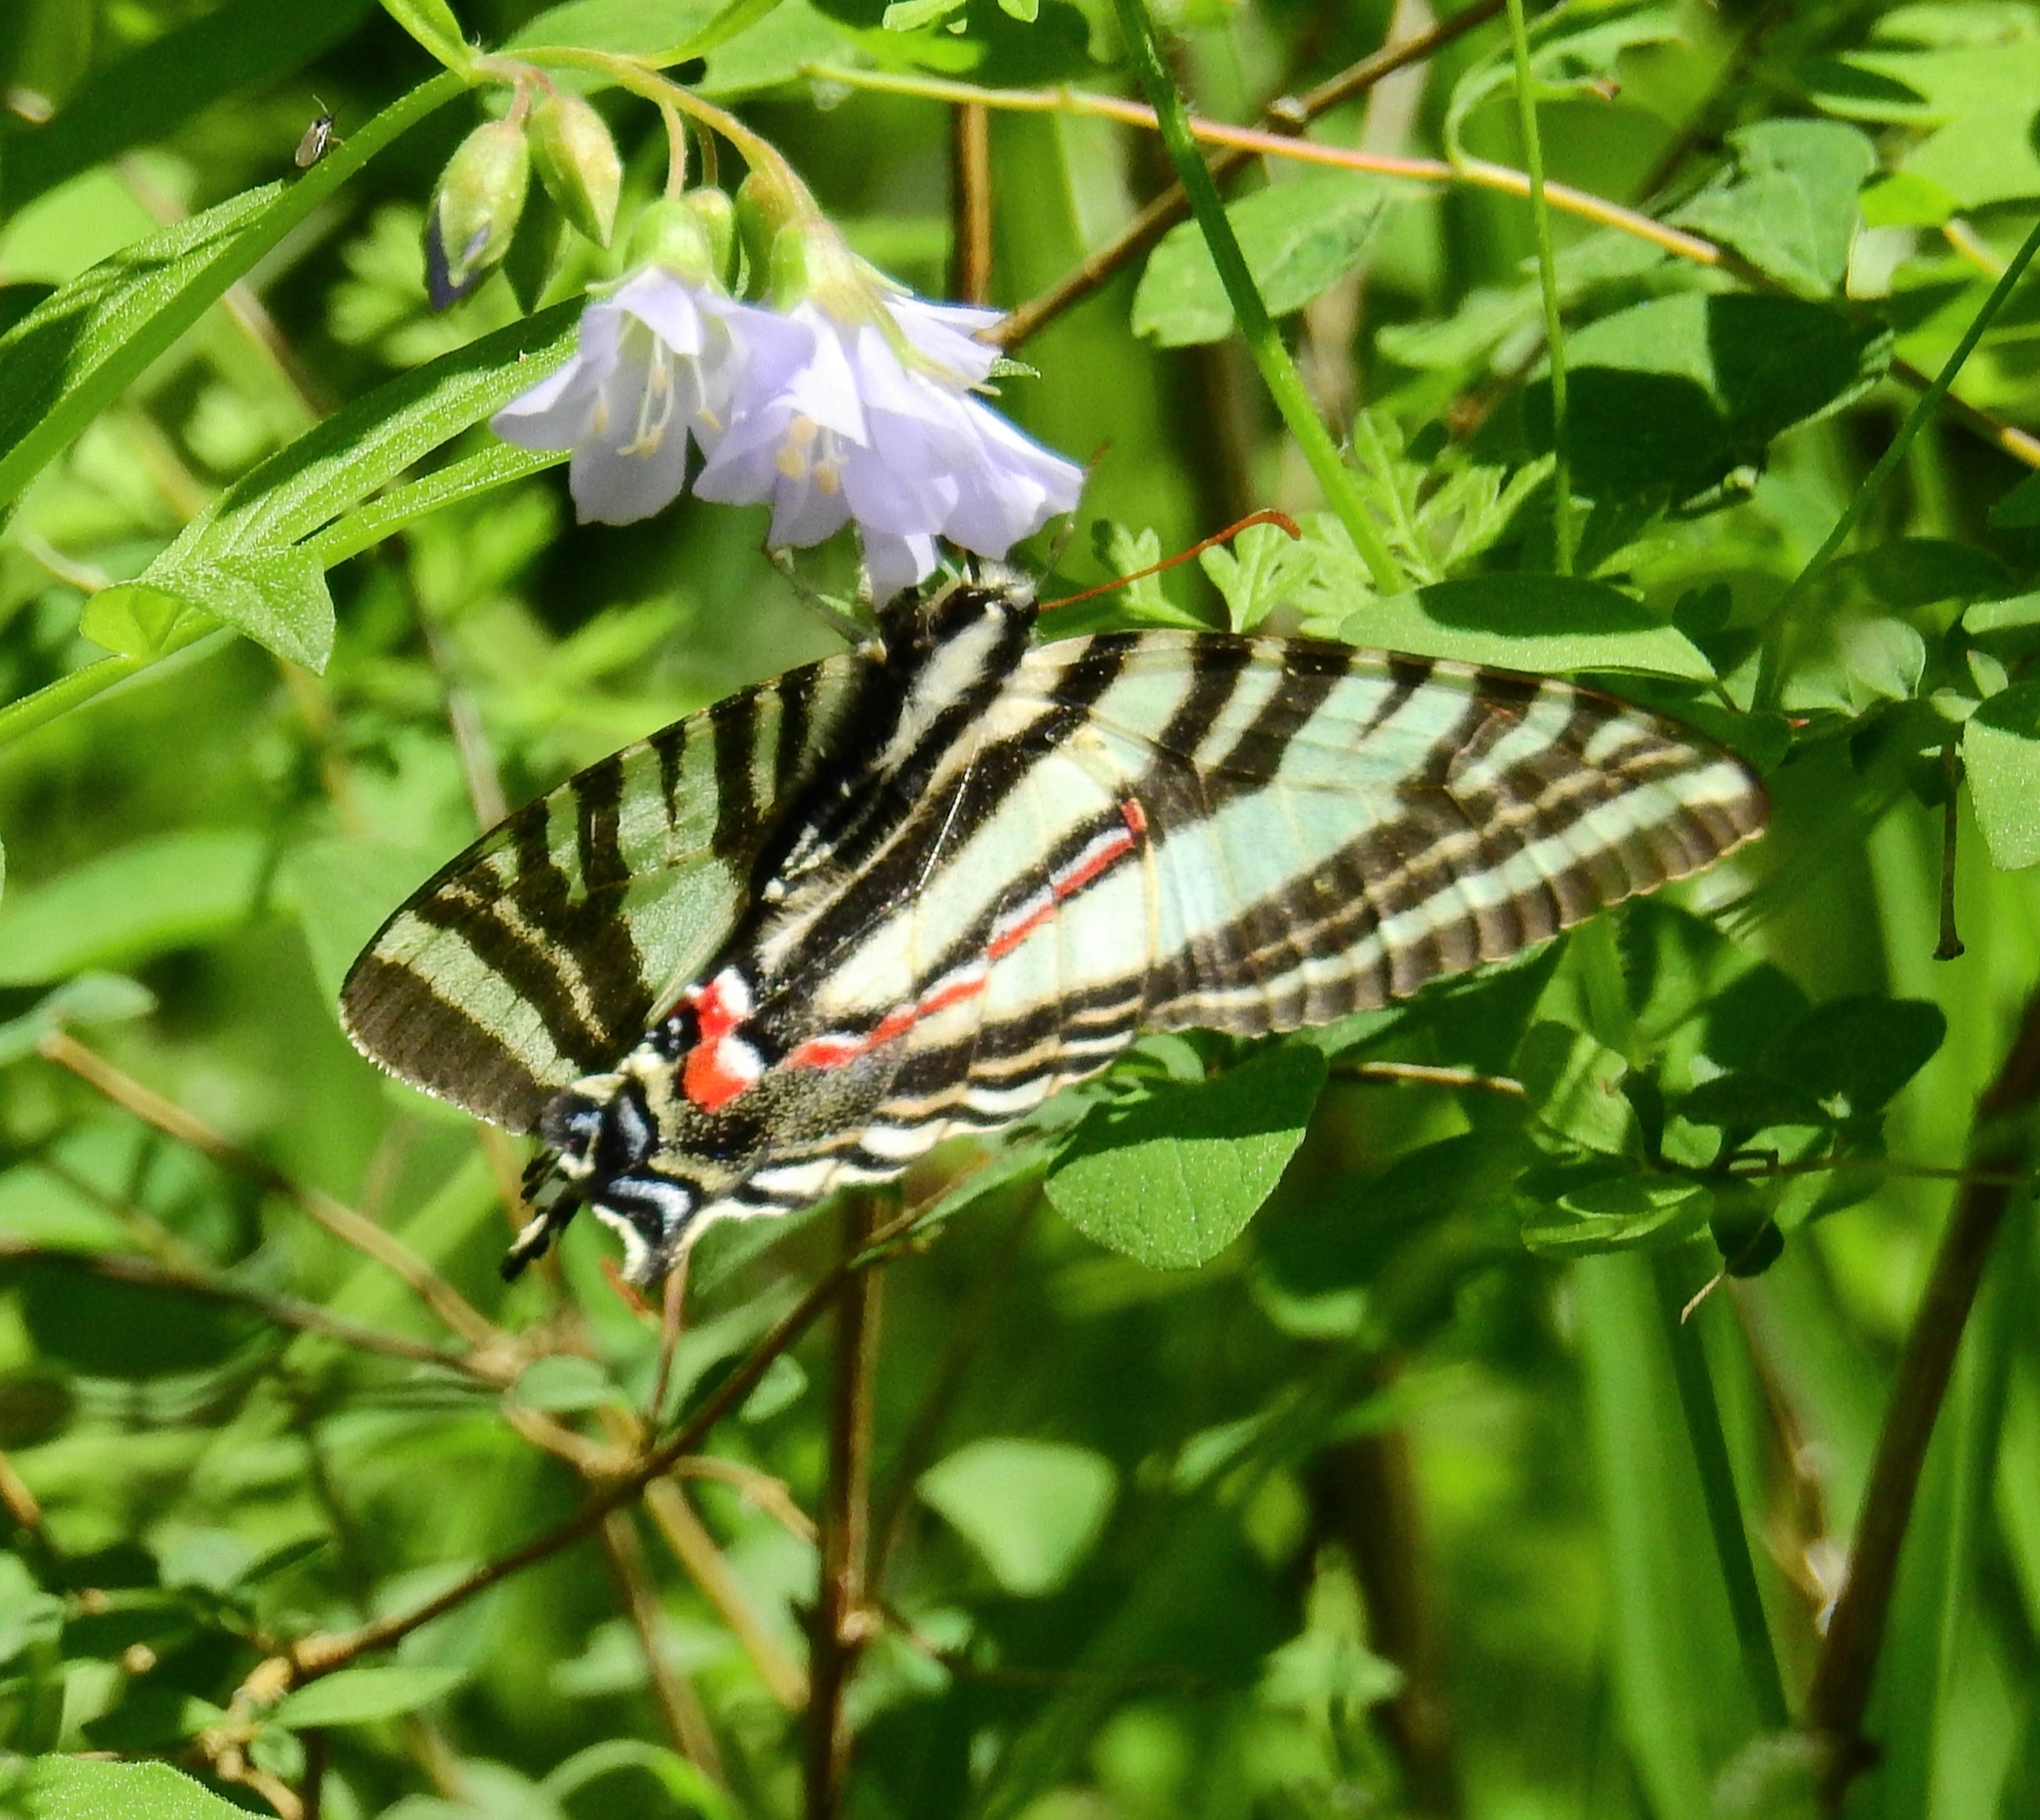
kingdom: Animalia
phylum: Arthropoda
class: Insecta
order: Lepidoptera
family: Papilionidae
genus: Protographium
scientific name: Protographium marcellus
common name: Zebra swallowtail
